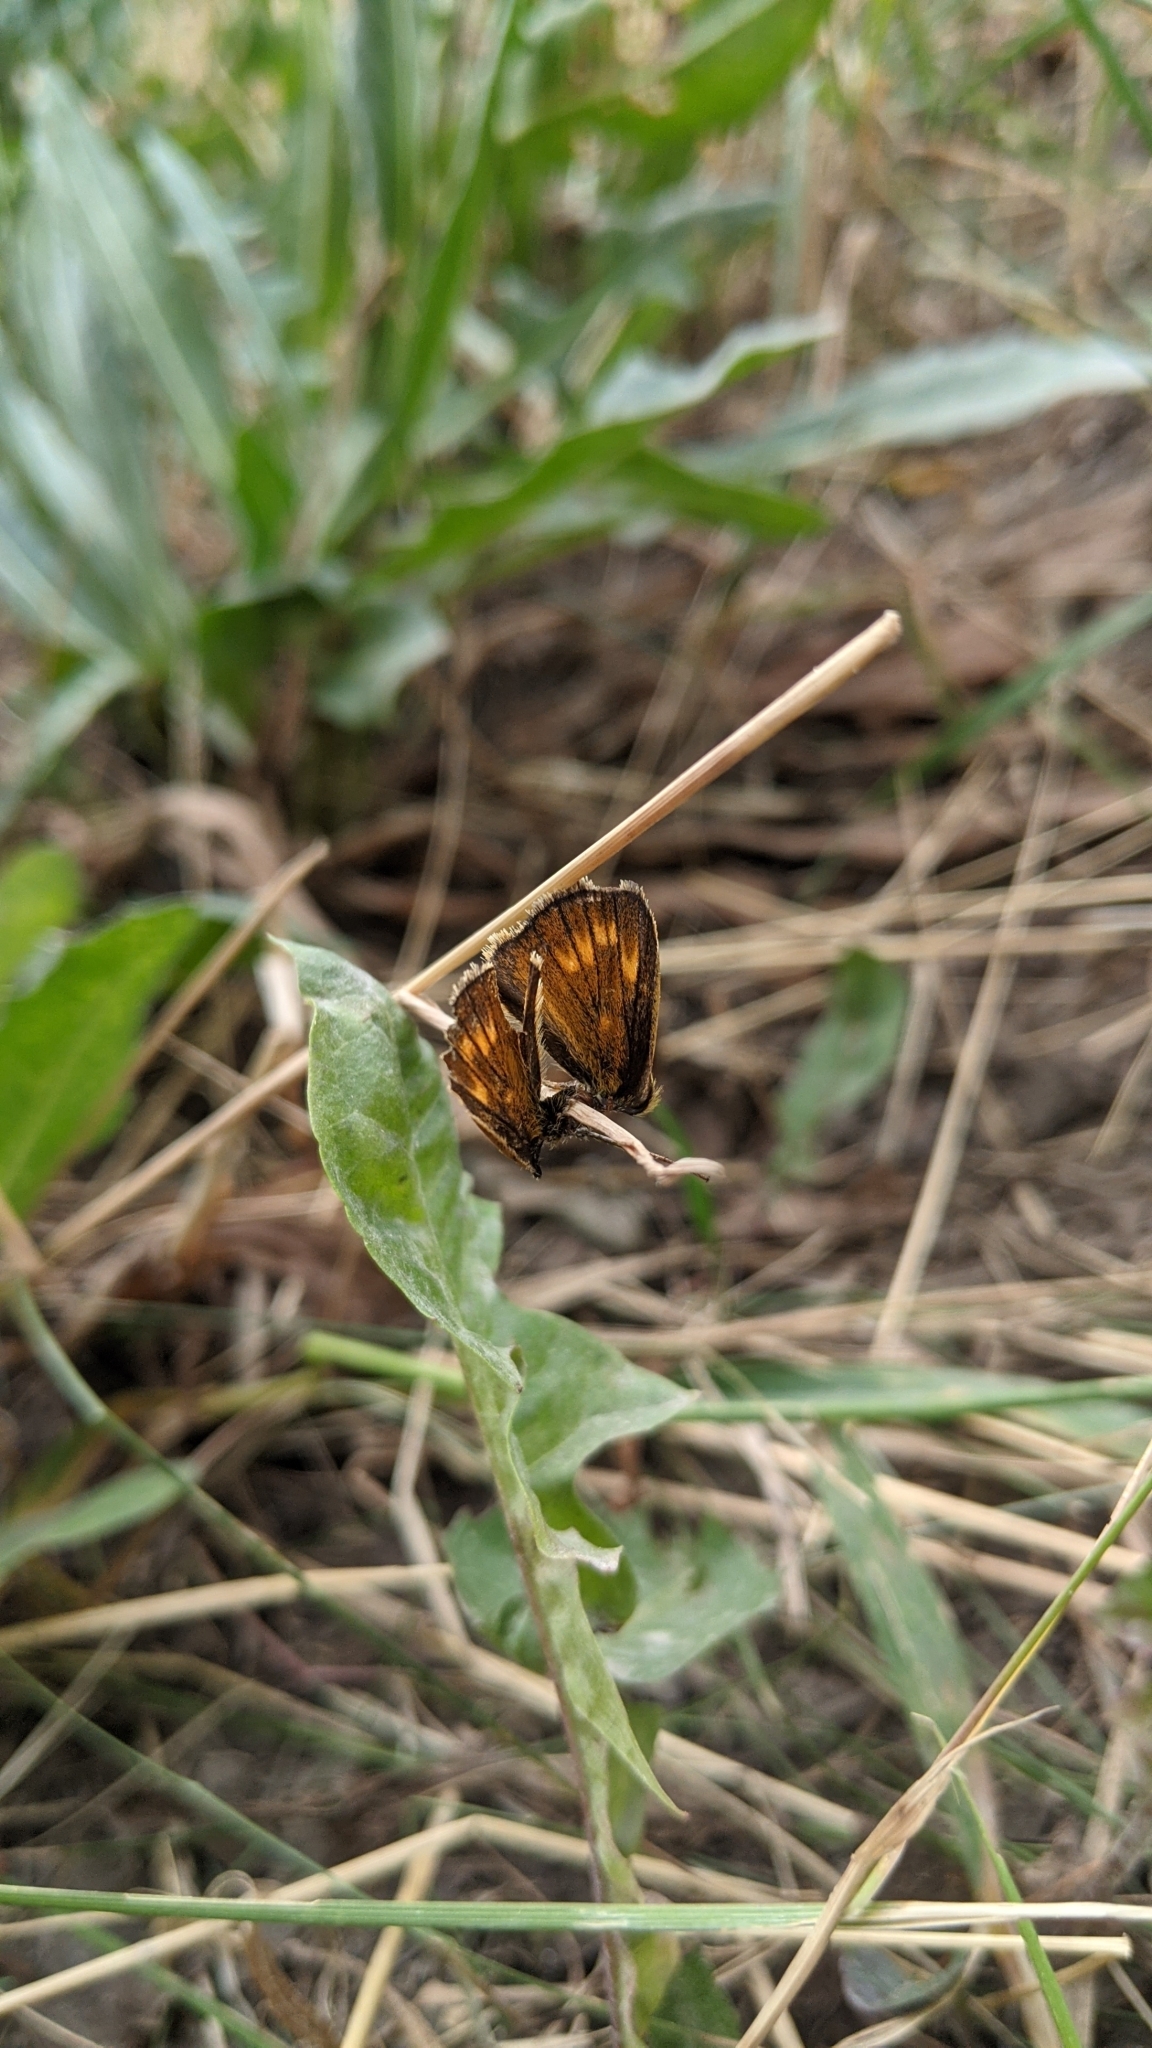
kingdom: Animalia
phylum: Arthropoda
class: Insecta
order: Lepidoptera
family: Hesperiidae
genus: Ochlodes
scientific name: Ochlodes venata
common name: Large skipper
